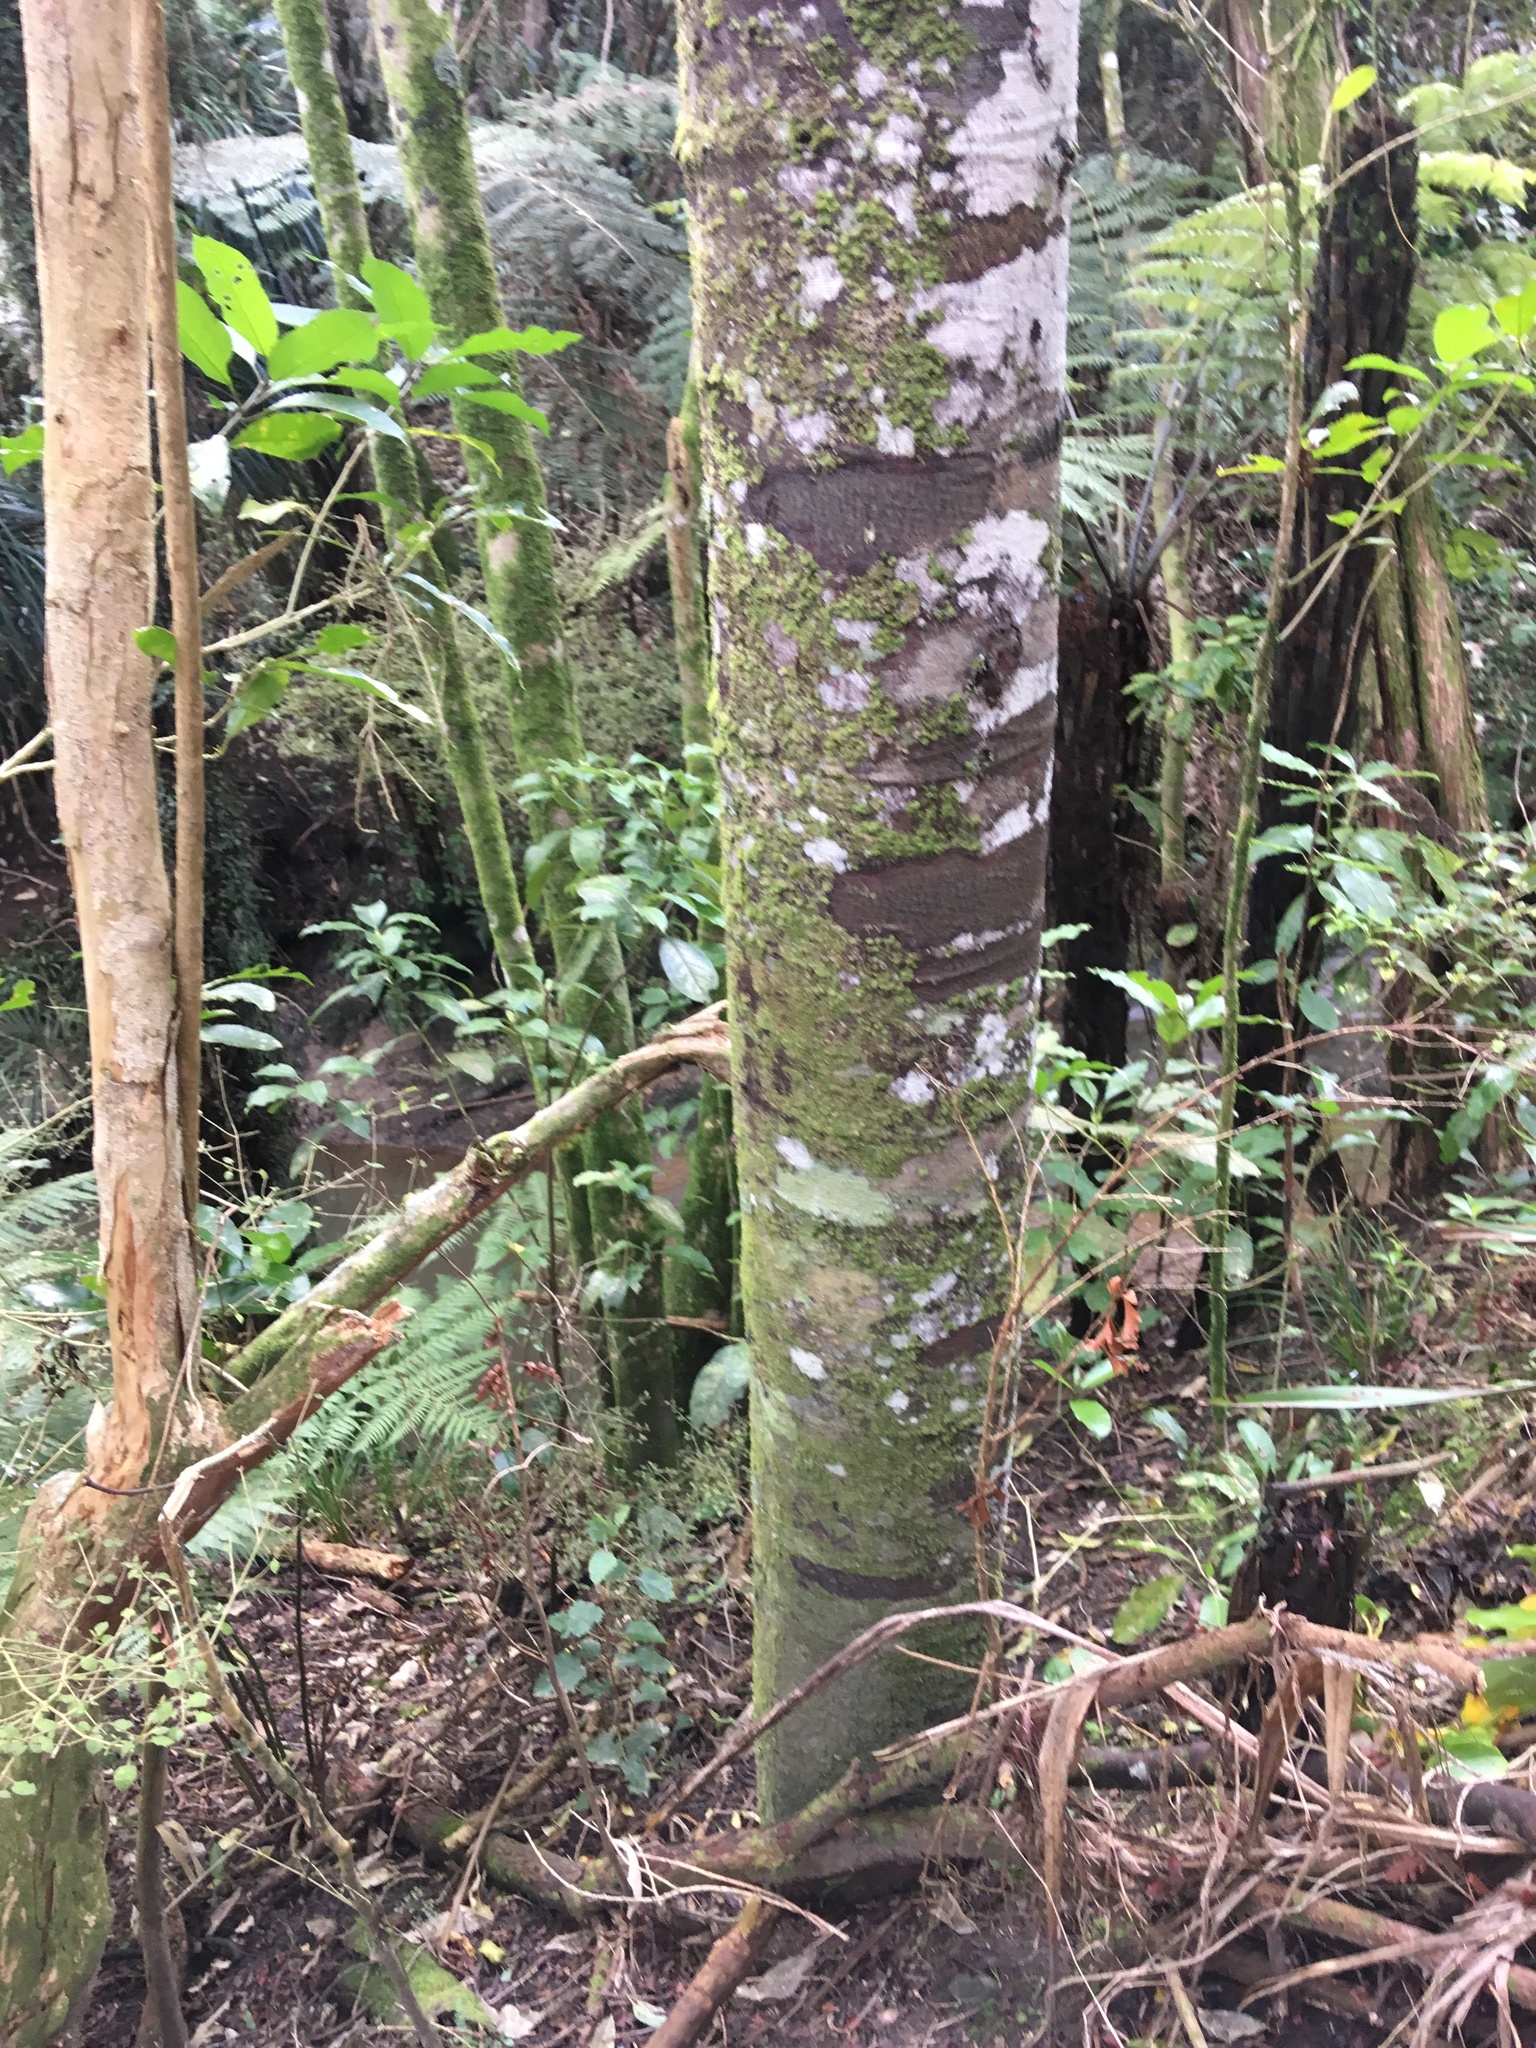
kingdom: Plantae
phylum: Tracheophyta
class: Pinopsida
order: Pinales
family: Phyllocladaceae
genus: Phyllocladus
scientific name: Phyllocladus trichomanoides
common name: Celery pine
